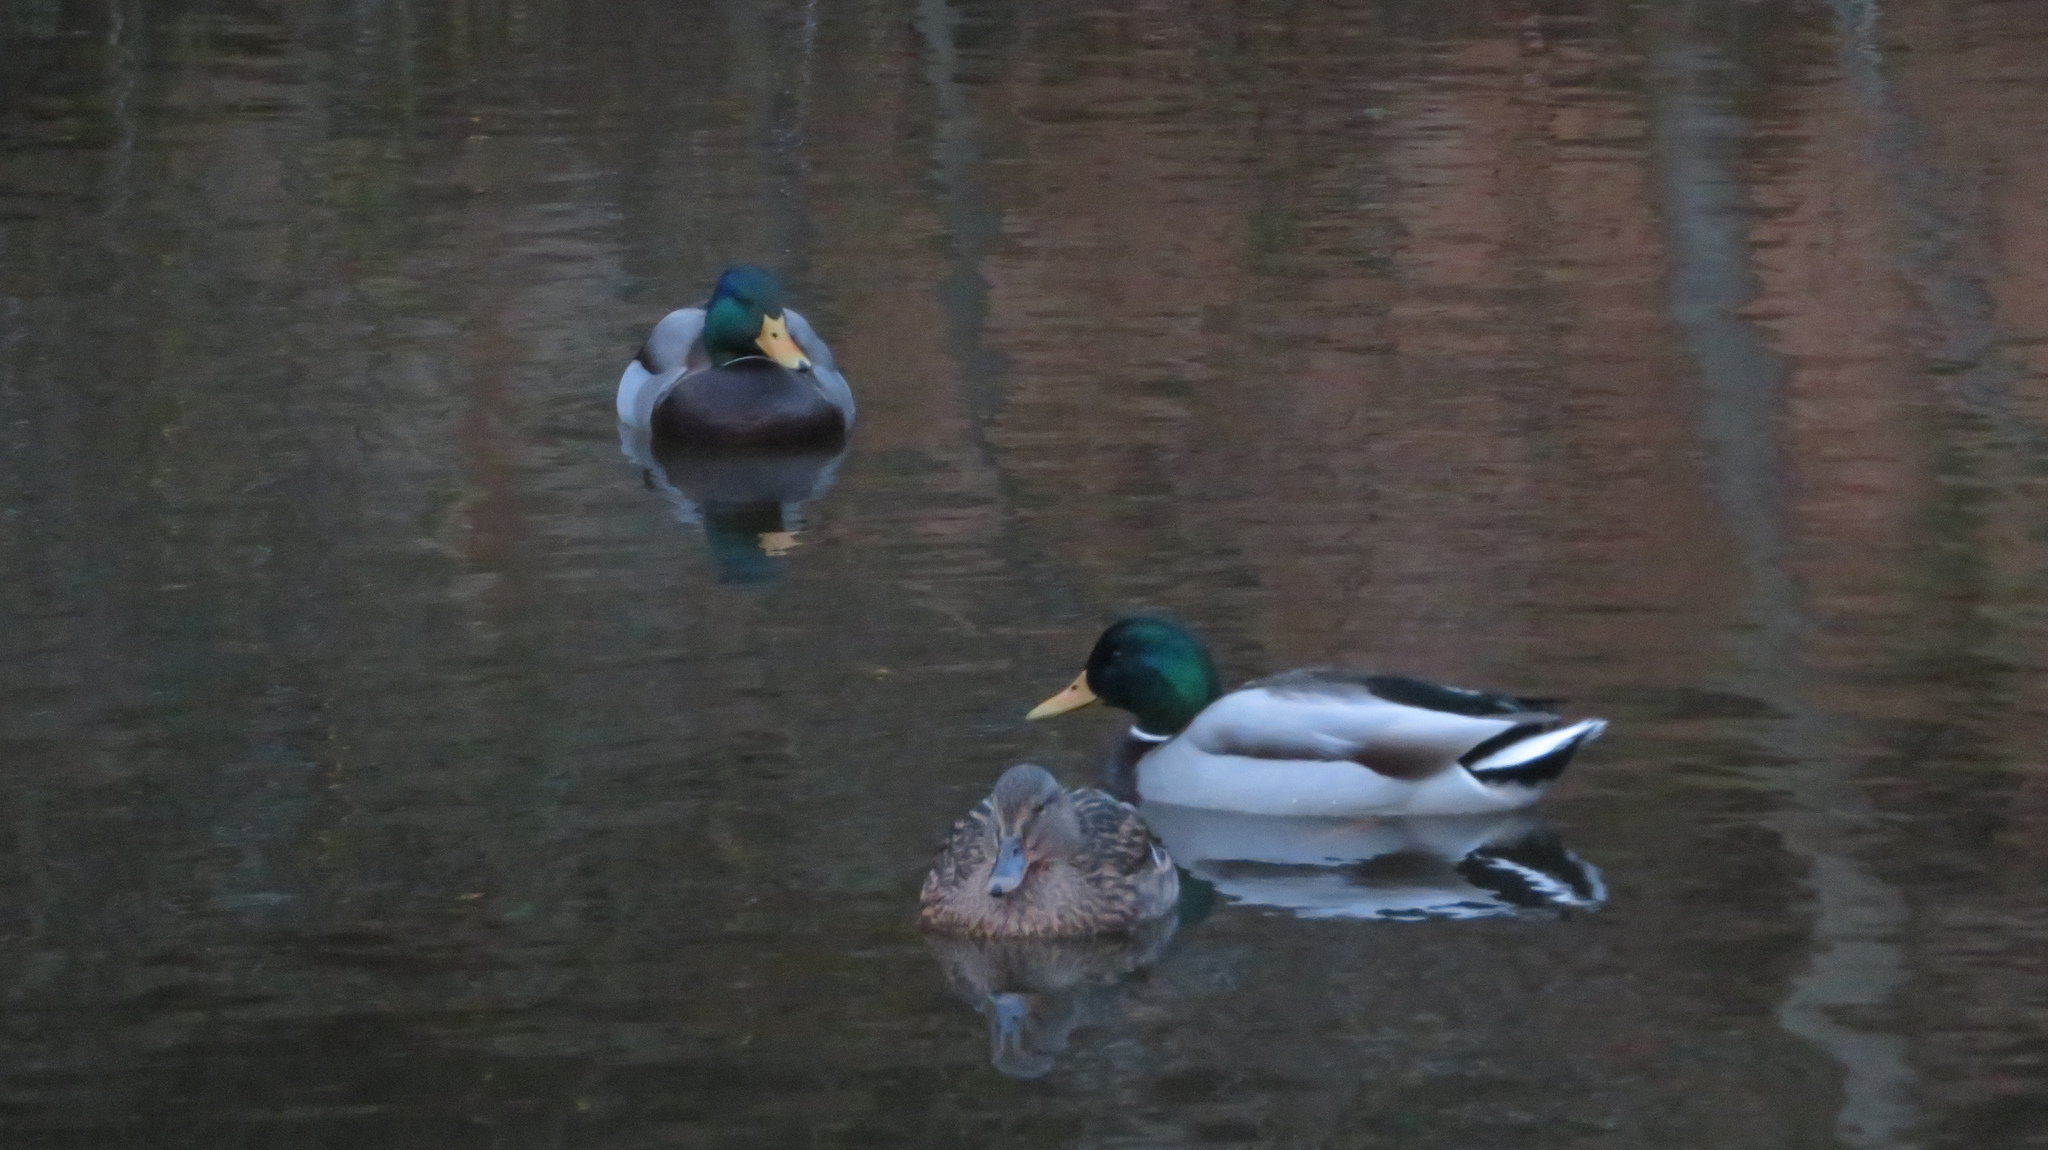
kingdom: Animalia
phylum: Chordata
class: Aves
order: Anseriformes
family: Anatidae
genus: Anas
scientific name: Anas platyrhynchos
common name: Mallard
